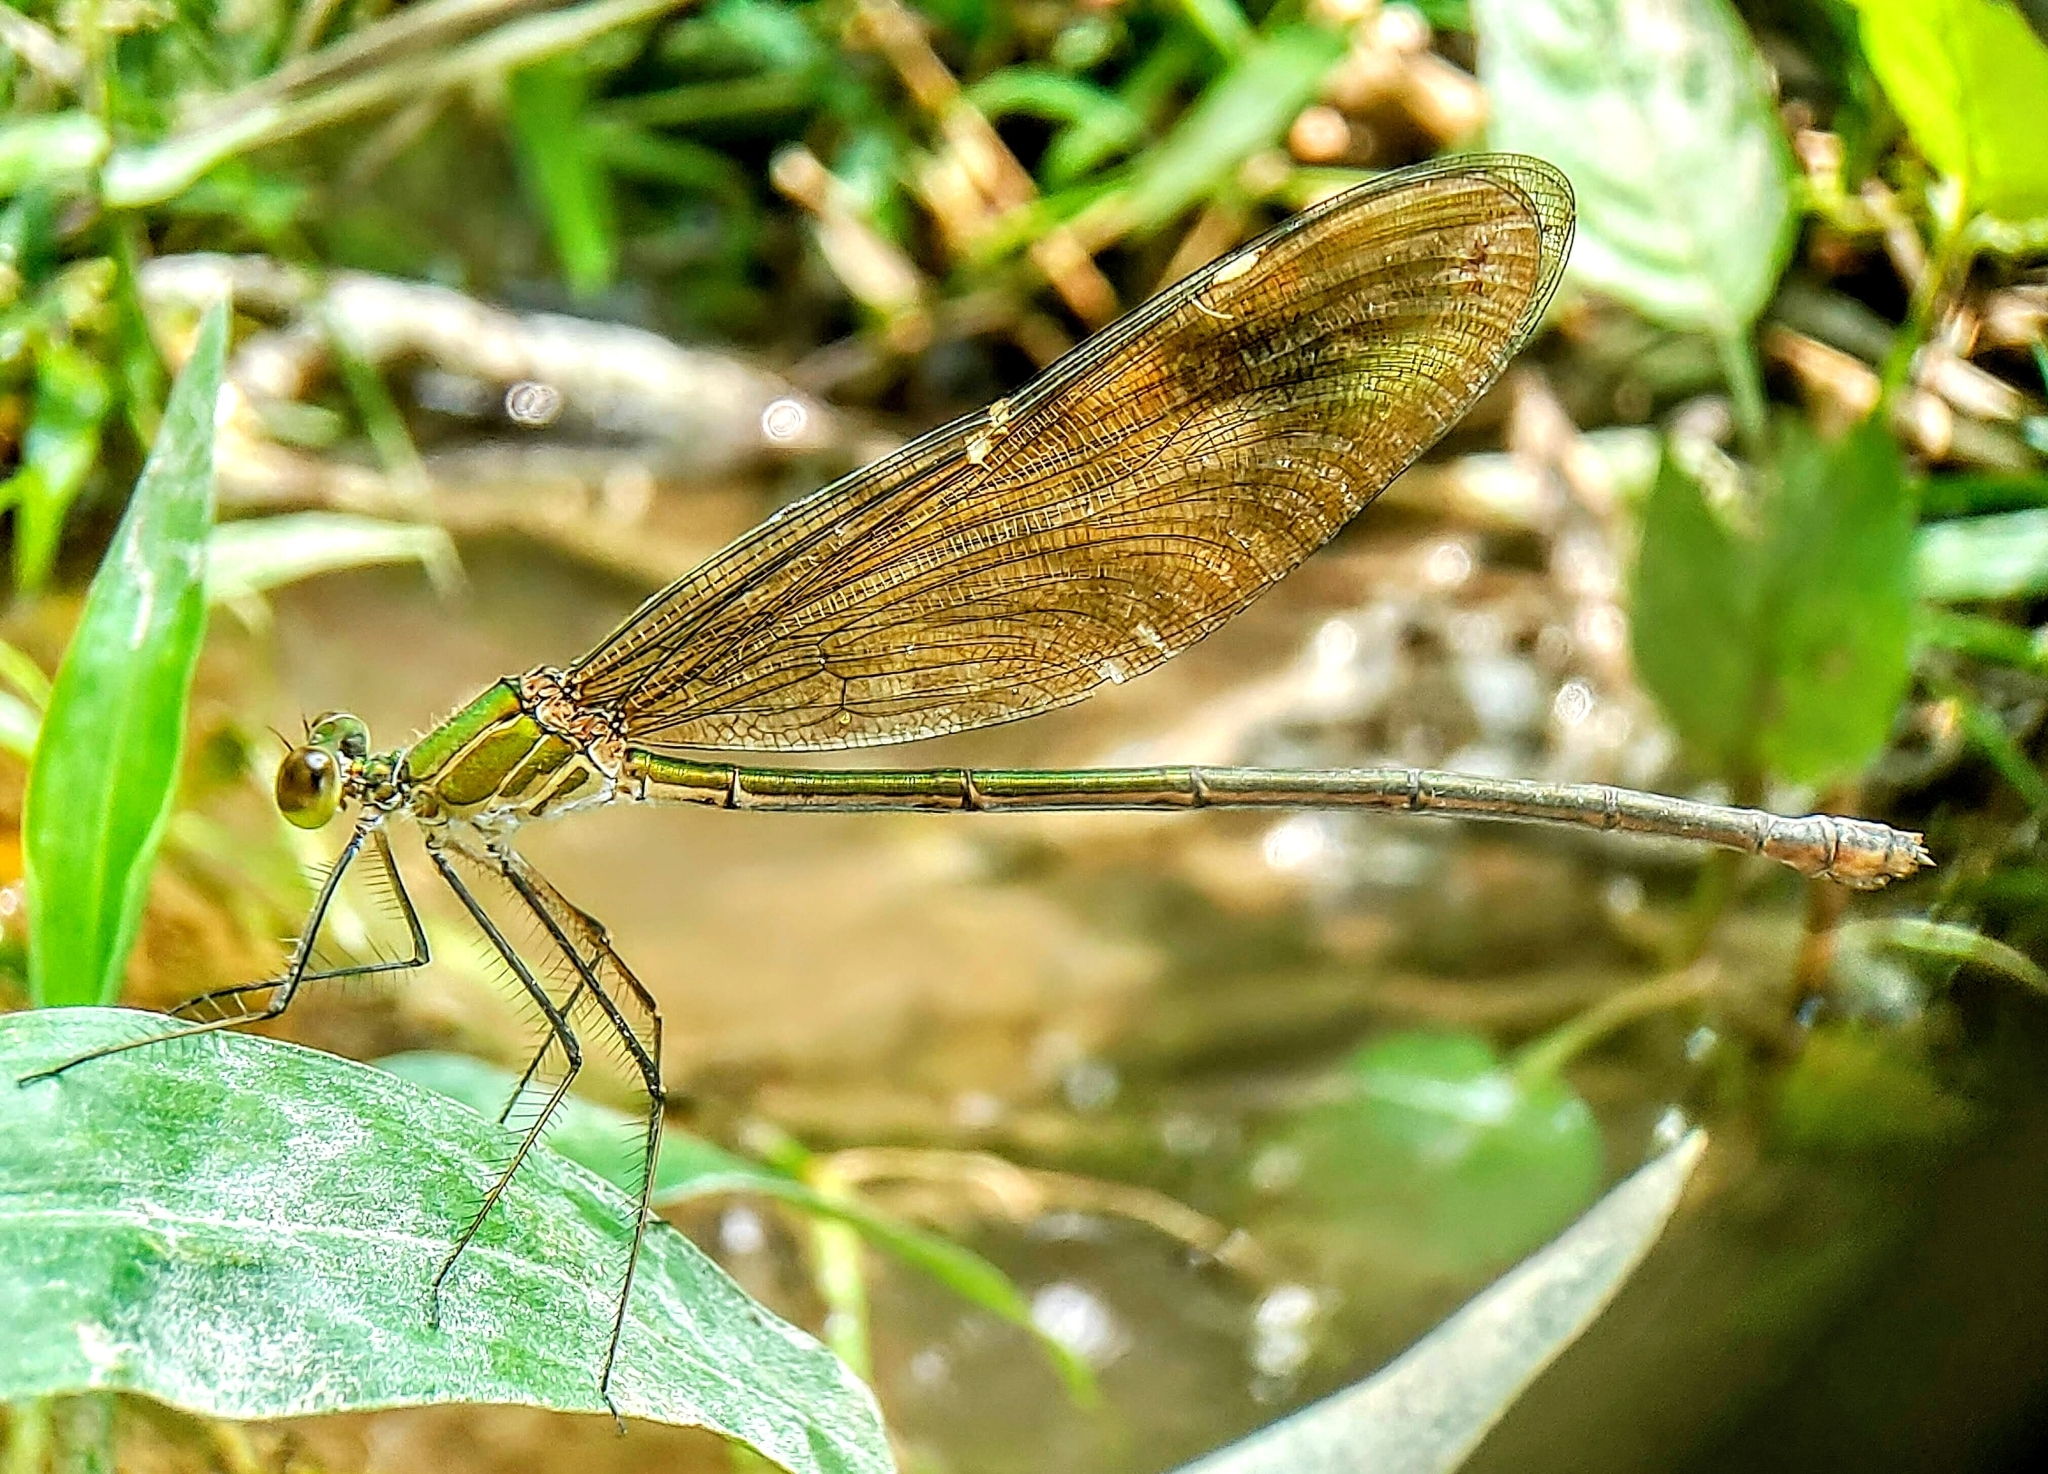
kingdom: Animalia
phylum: Arthropoda
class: Insecta
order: Odonata
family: Calopterygidae
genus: Neurobasis
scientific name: Neurobasis chinensis
